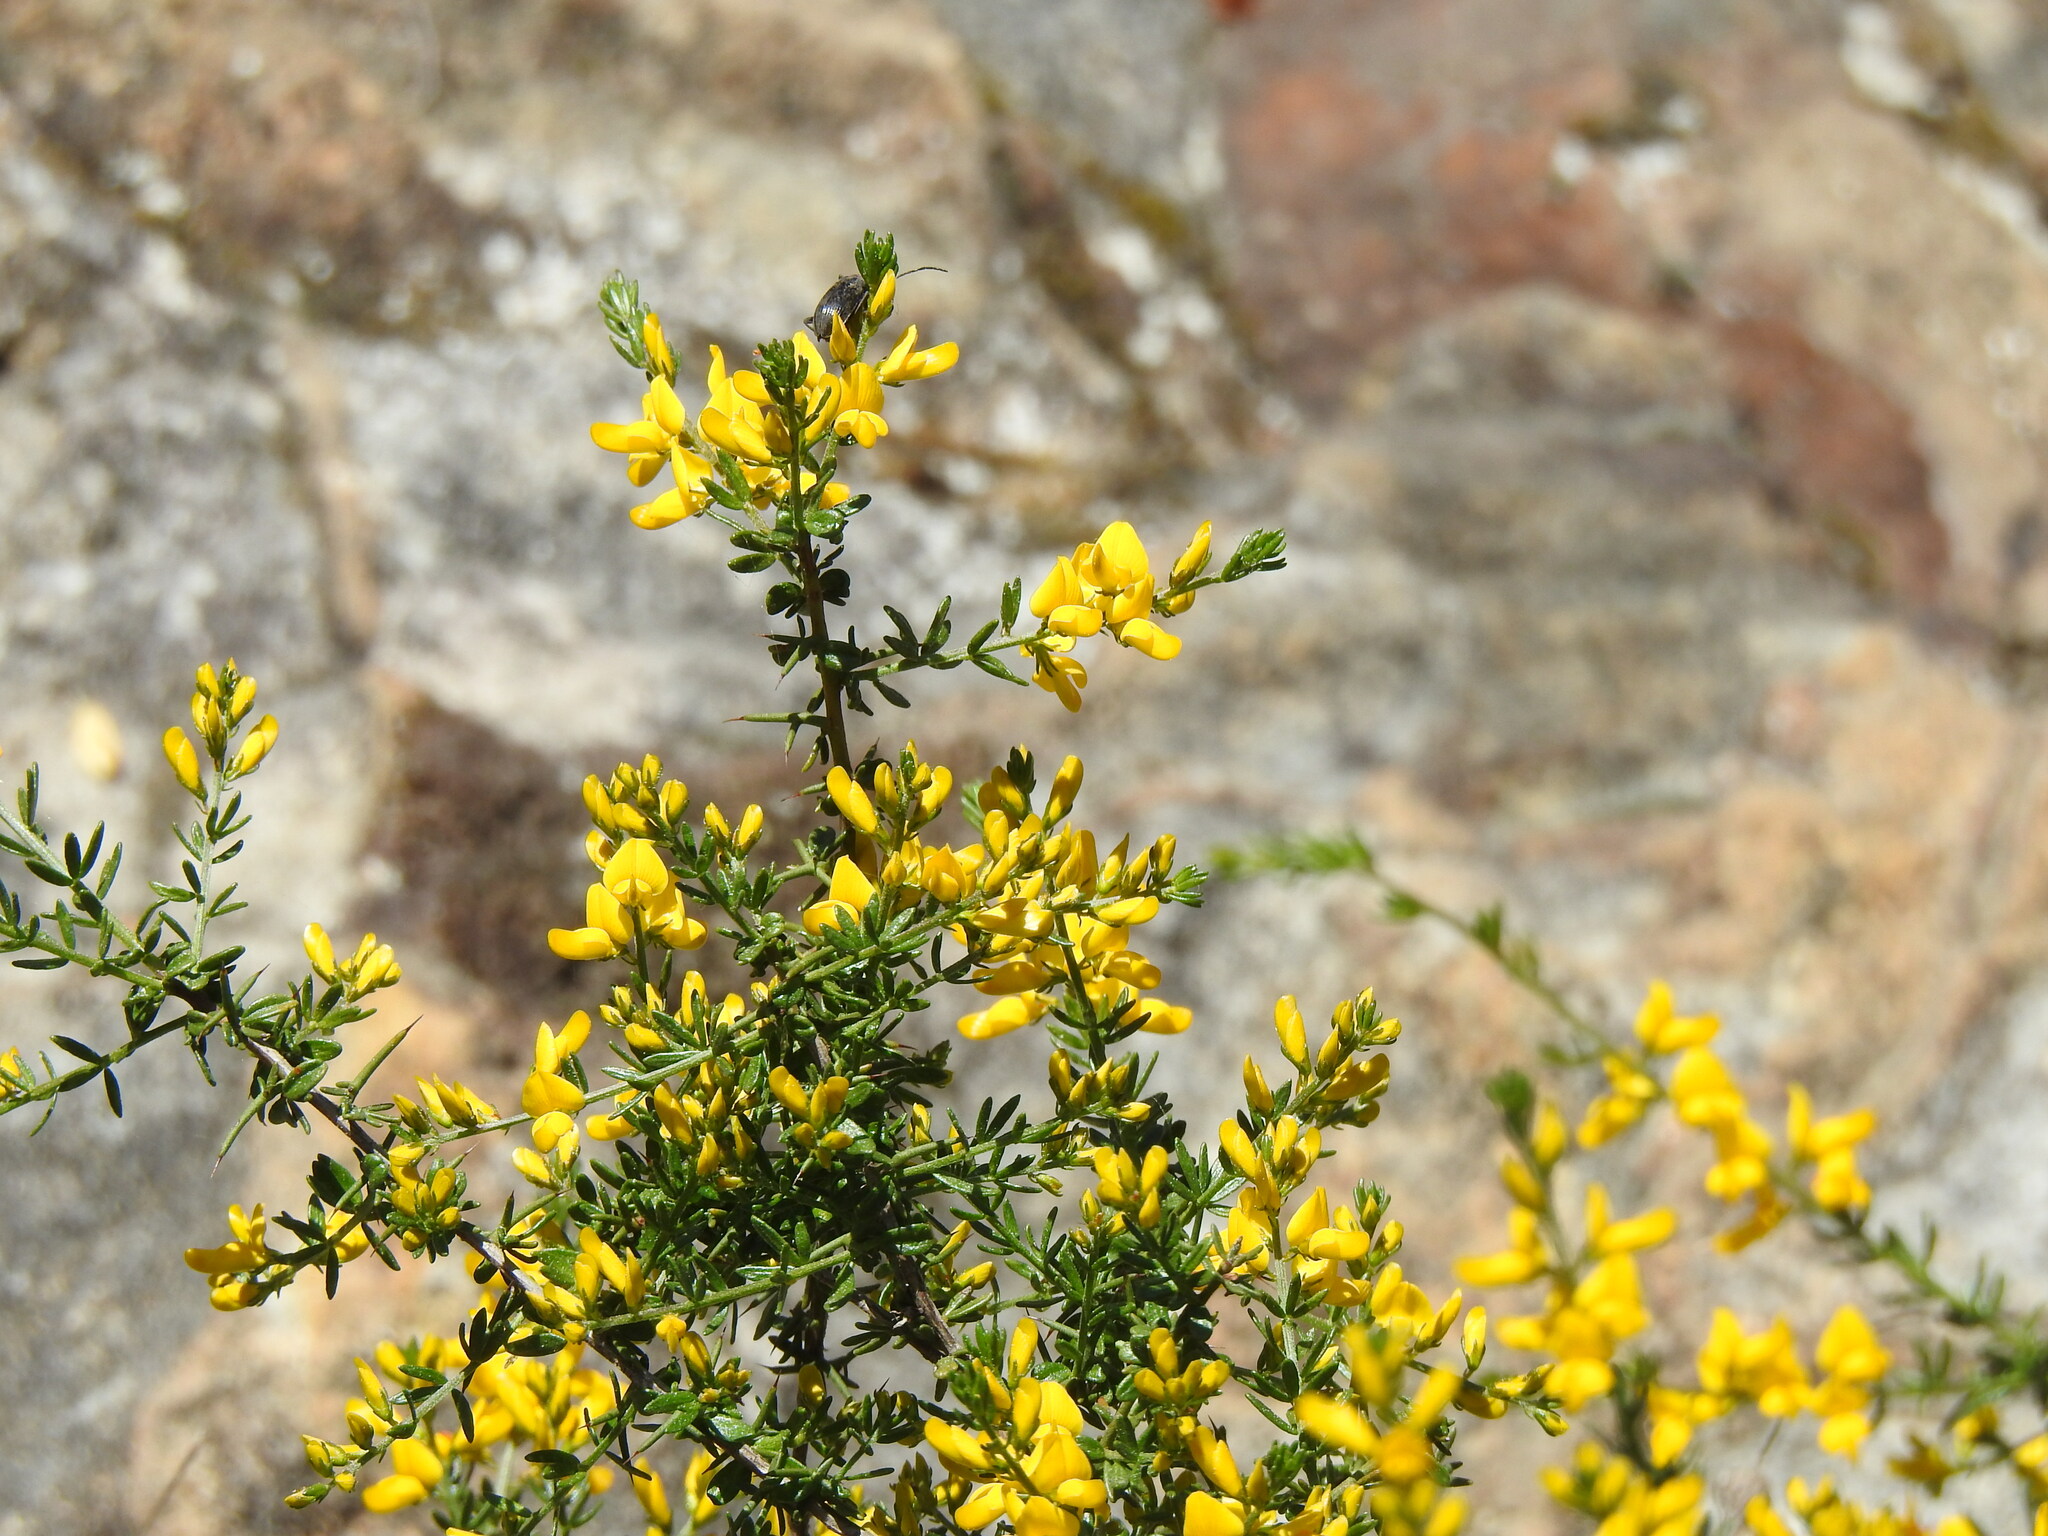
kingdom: Plantae
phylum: Tracheophyta
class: Magnoliopsida
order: Fabales
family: Fabaceae
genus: Genista
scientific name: Genista triacanthos
